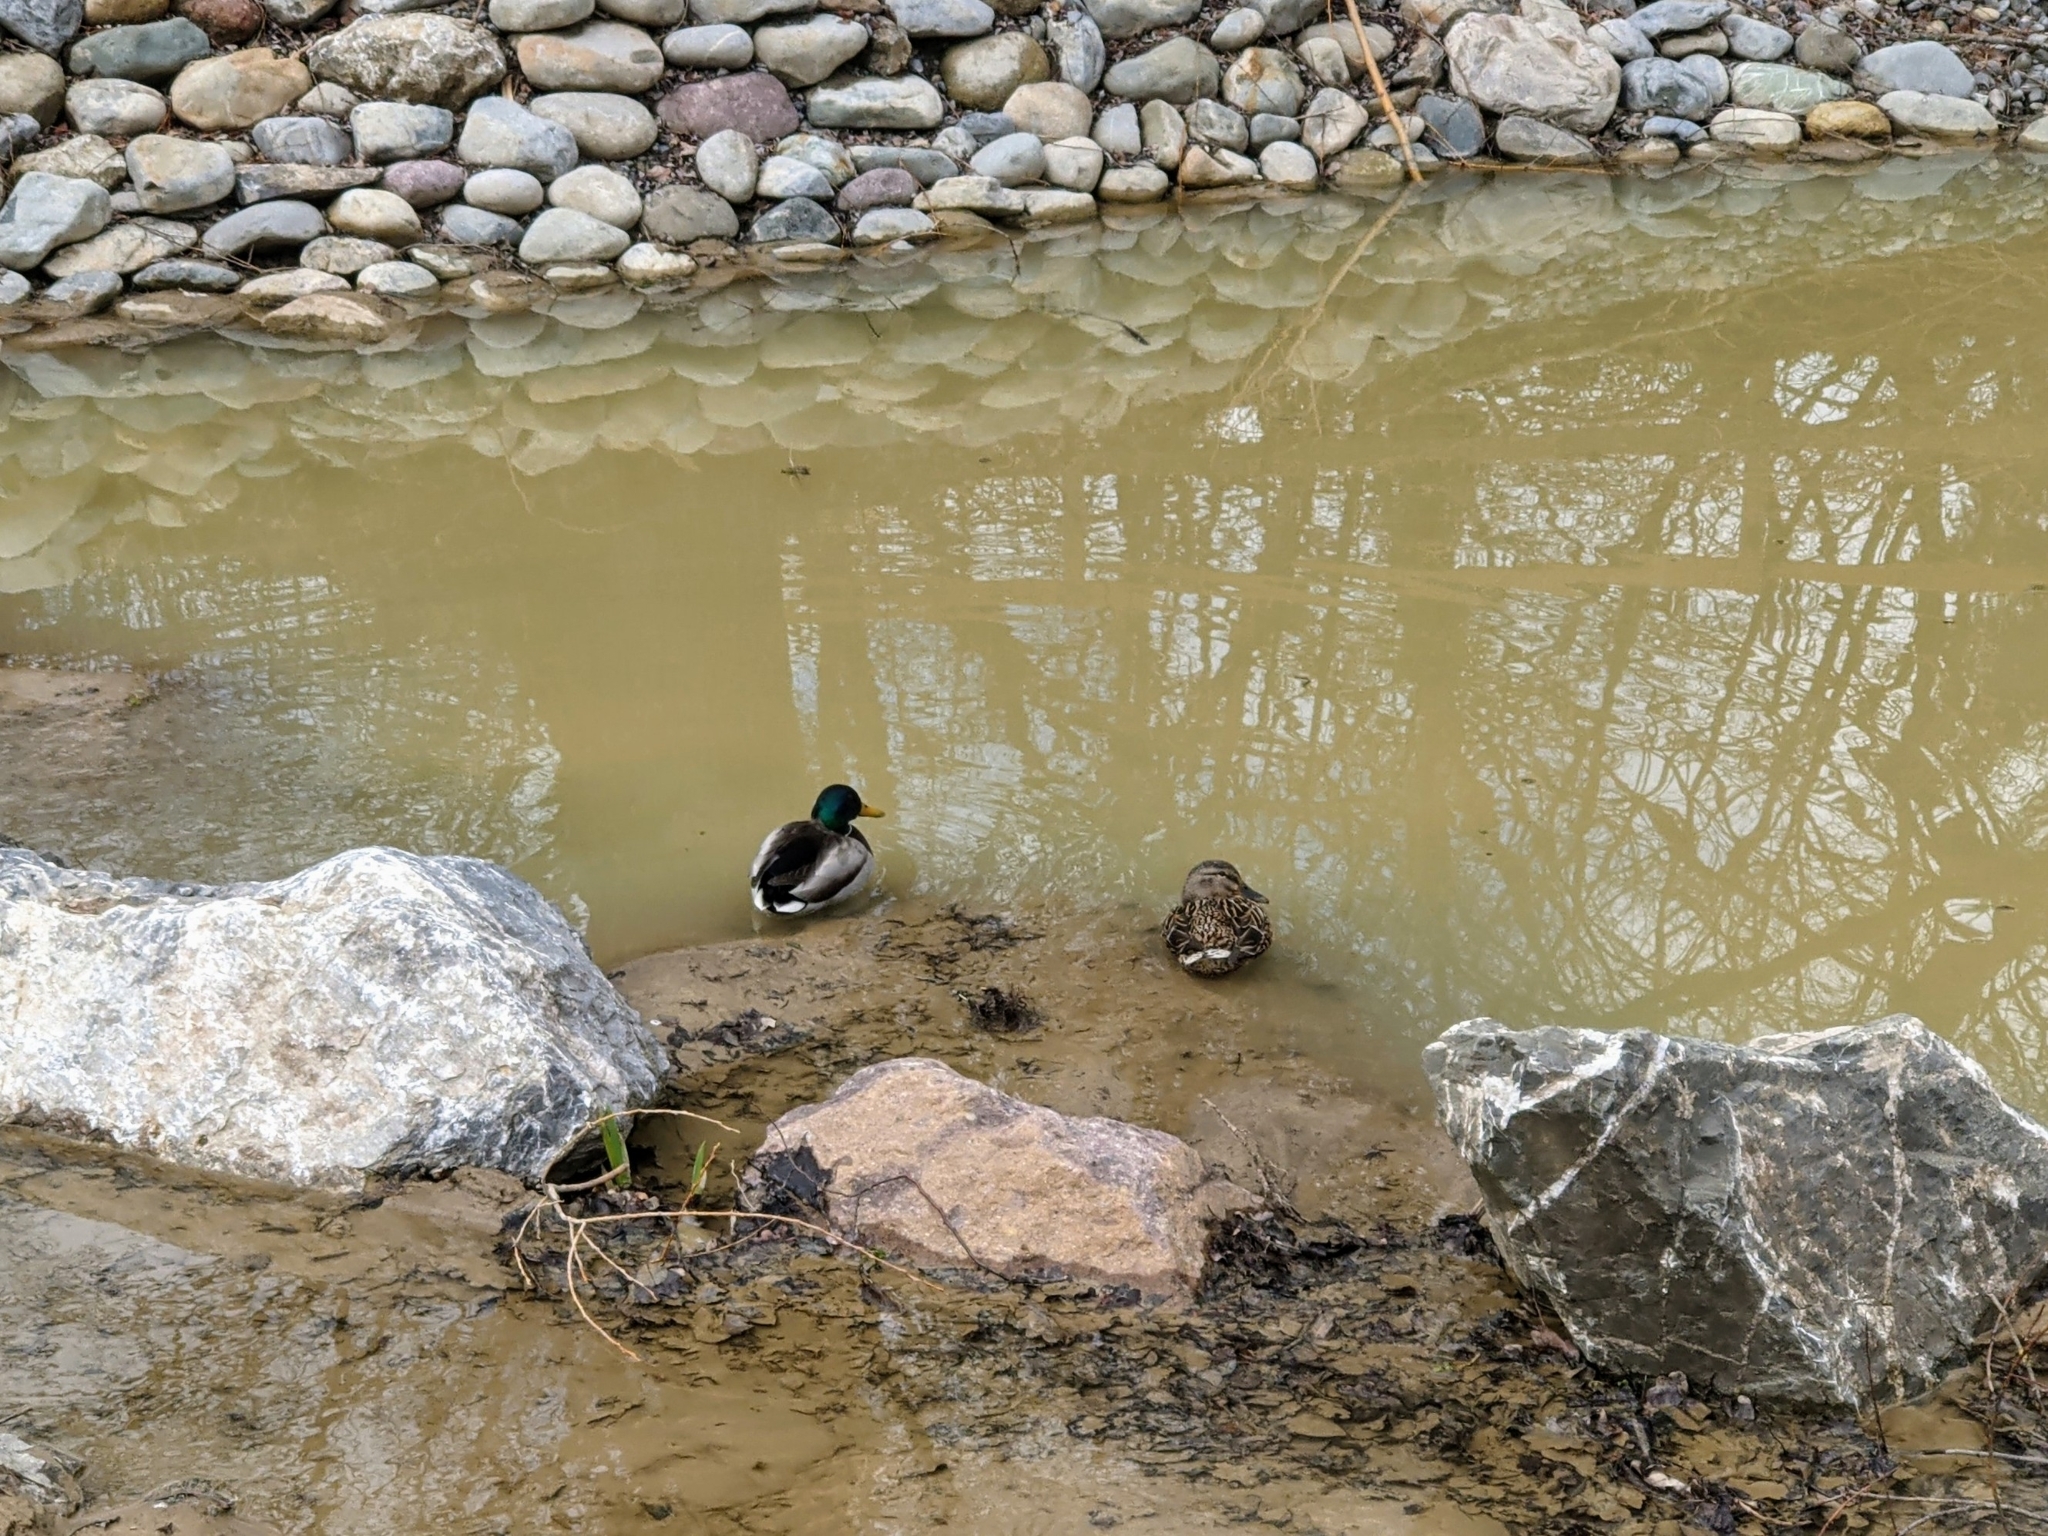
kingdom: Animalia
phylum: Chordata
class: Aves
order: Anseriformes
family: Anatidae
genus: Anas
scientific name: Anas platyrhynchos
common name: Mallard
